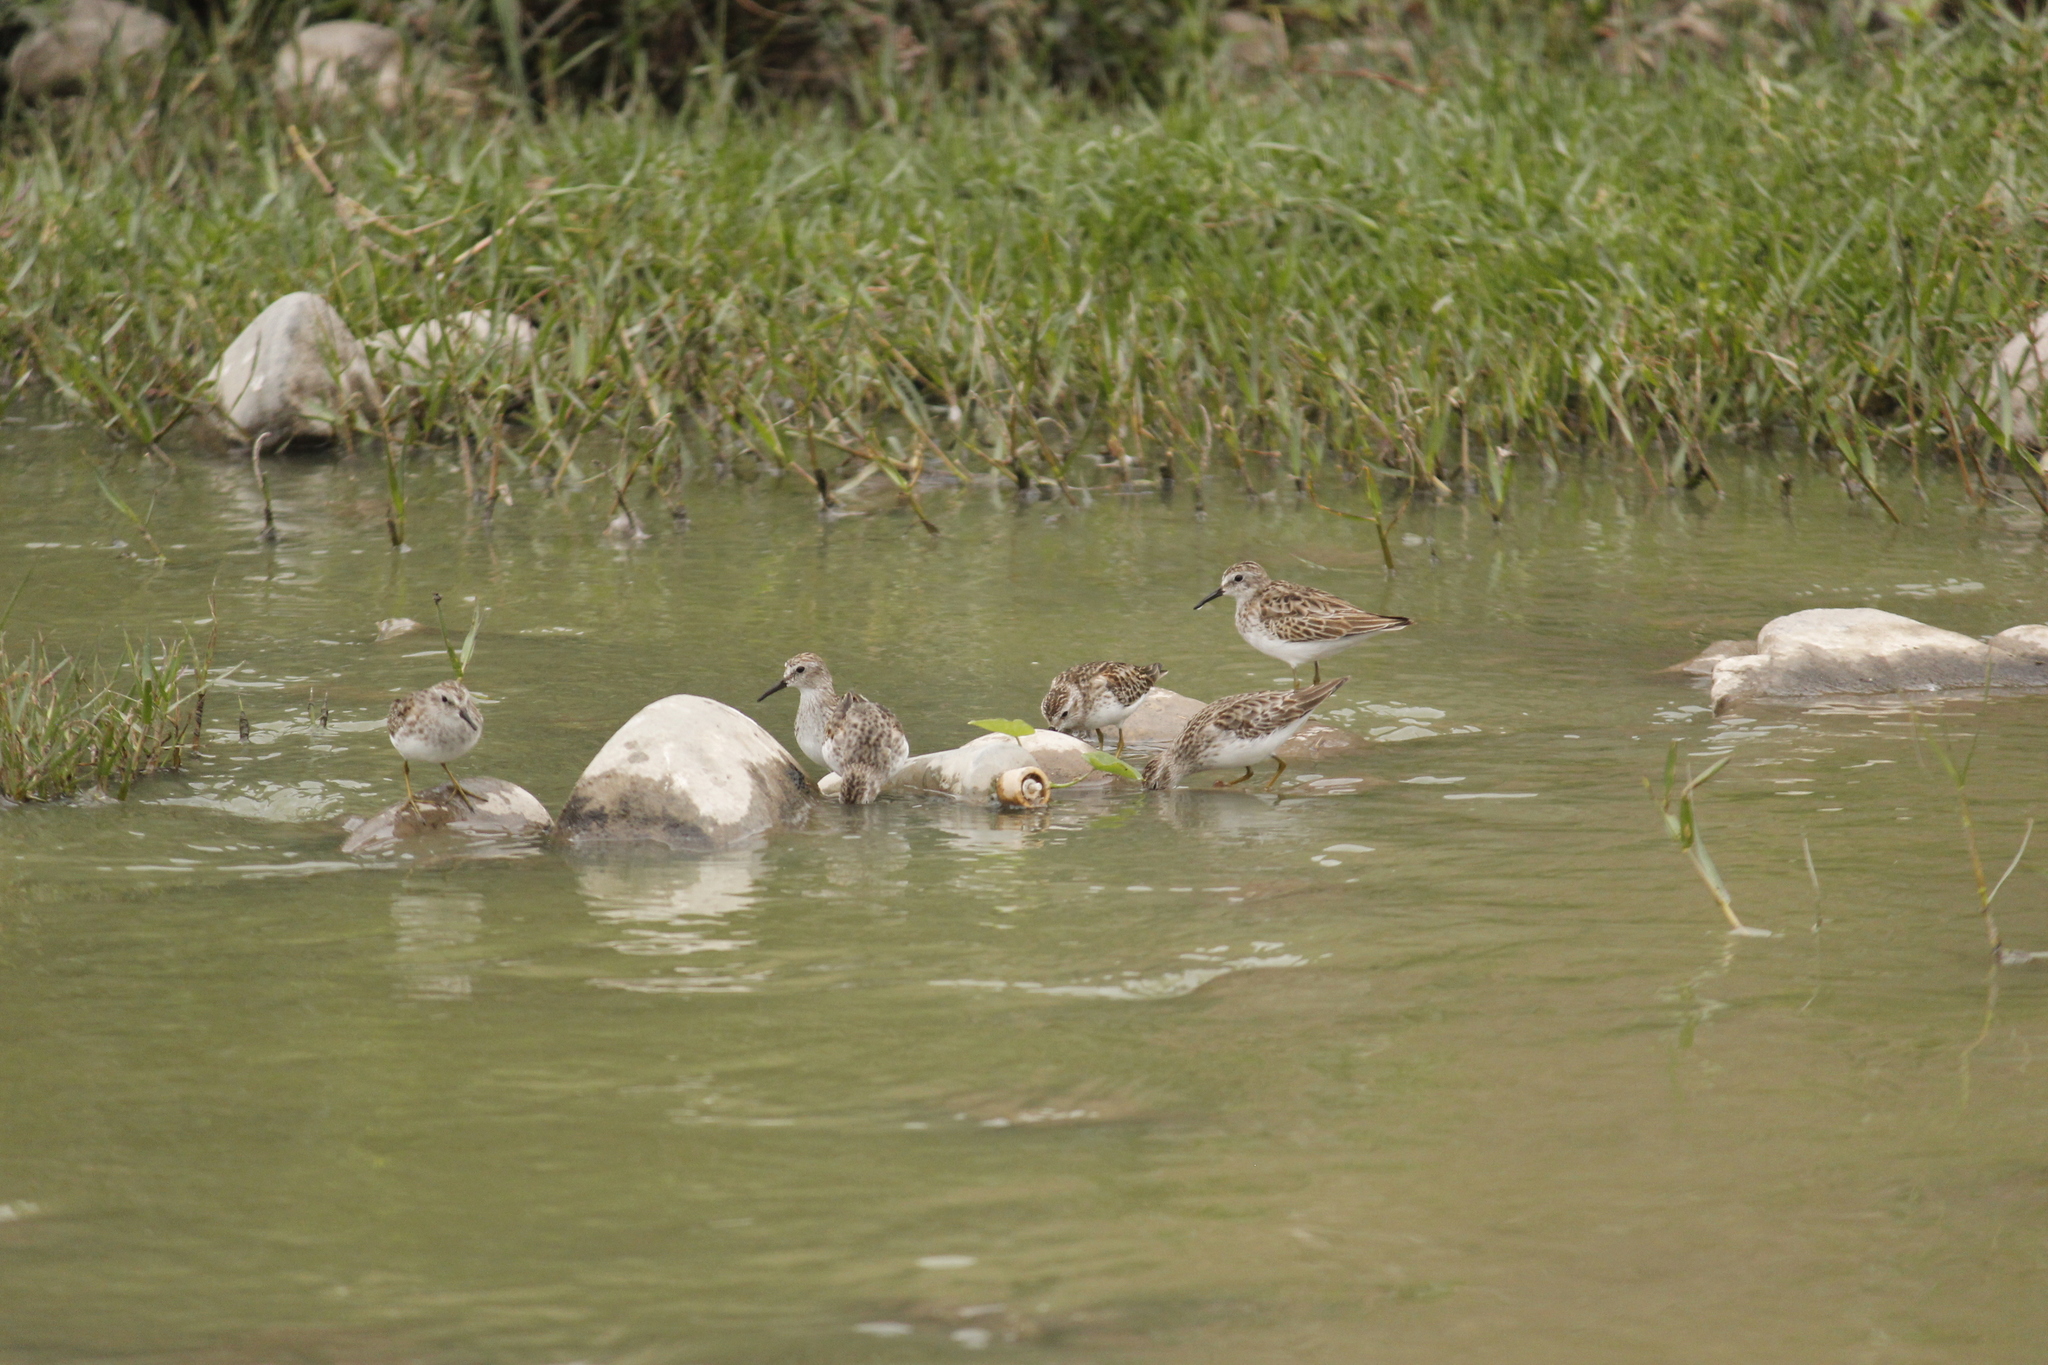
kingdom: Animalia
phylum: Chordata
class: Aves
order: Charadriiformes
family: Scolopacidae
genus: Calidris
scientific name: Calidris minutilla
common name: Least sandpiper
